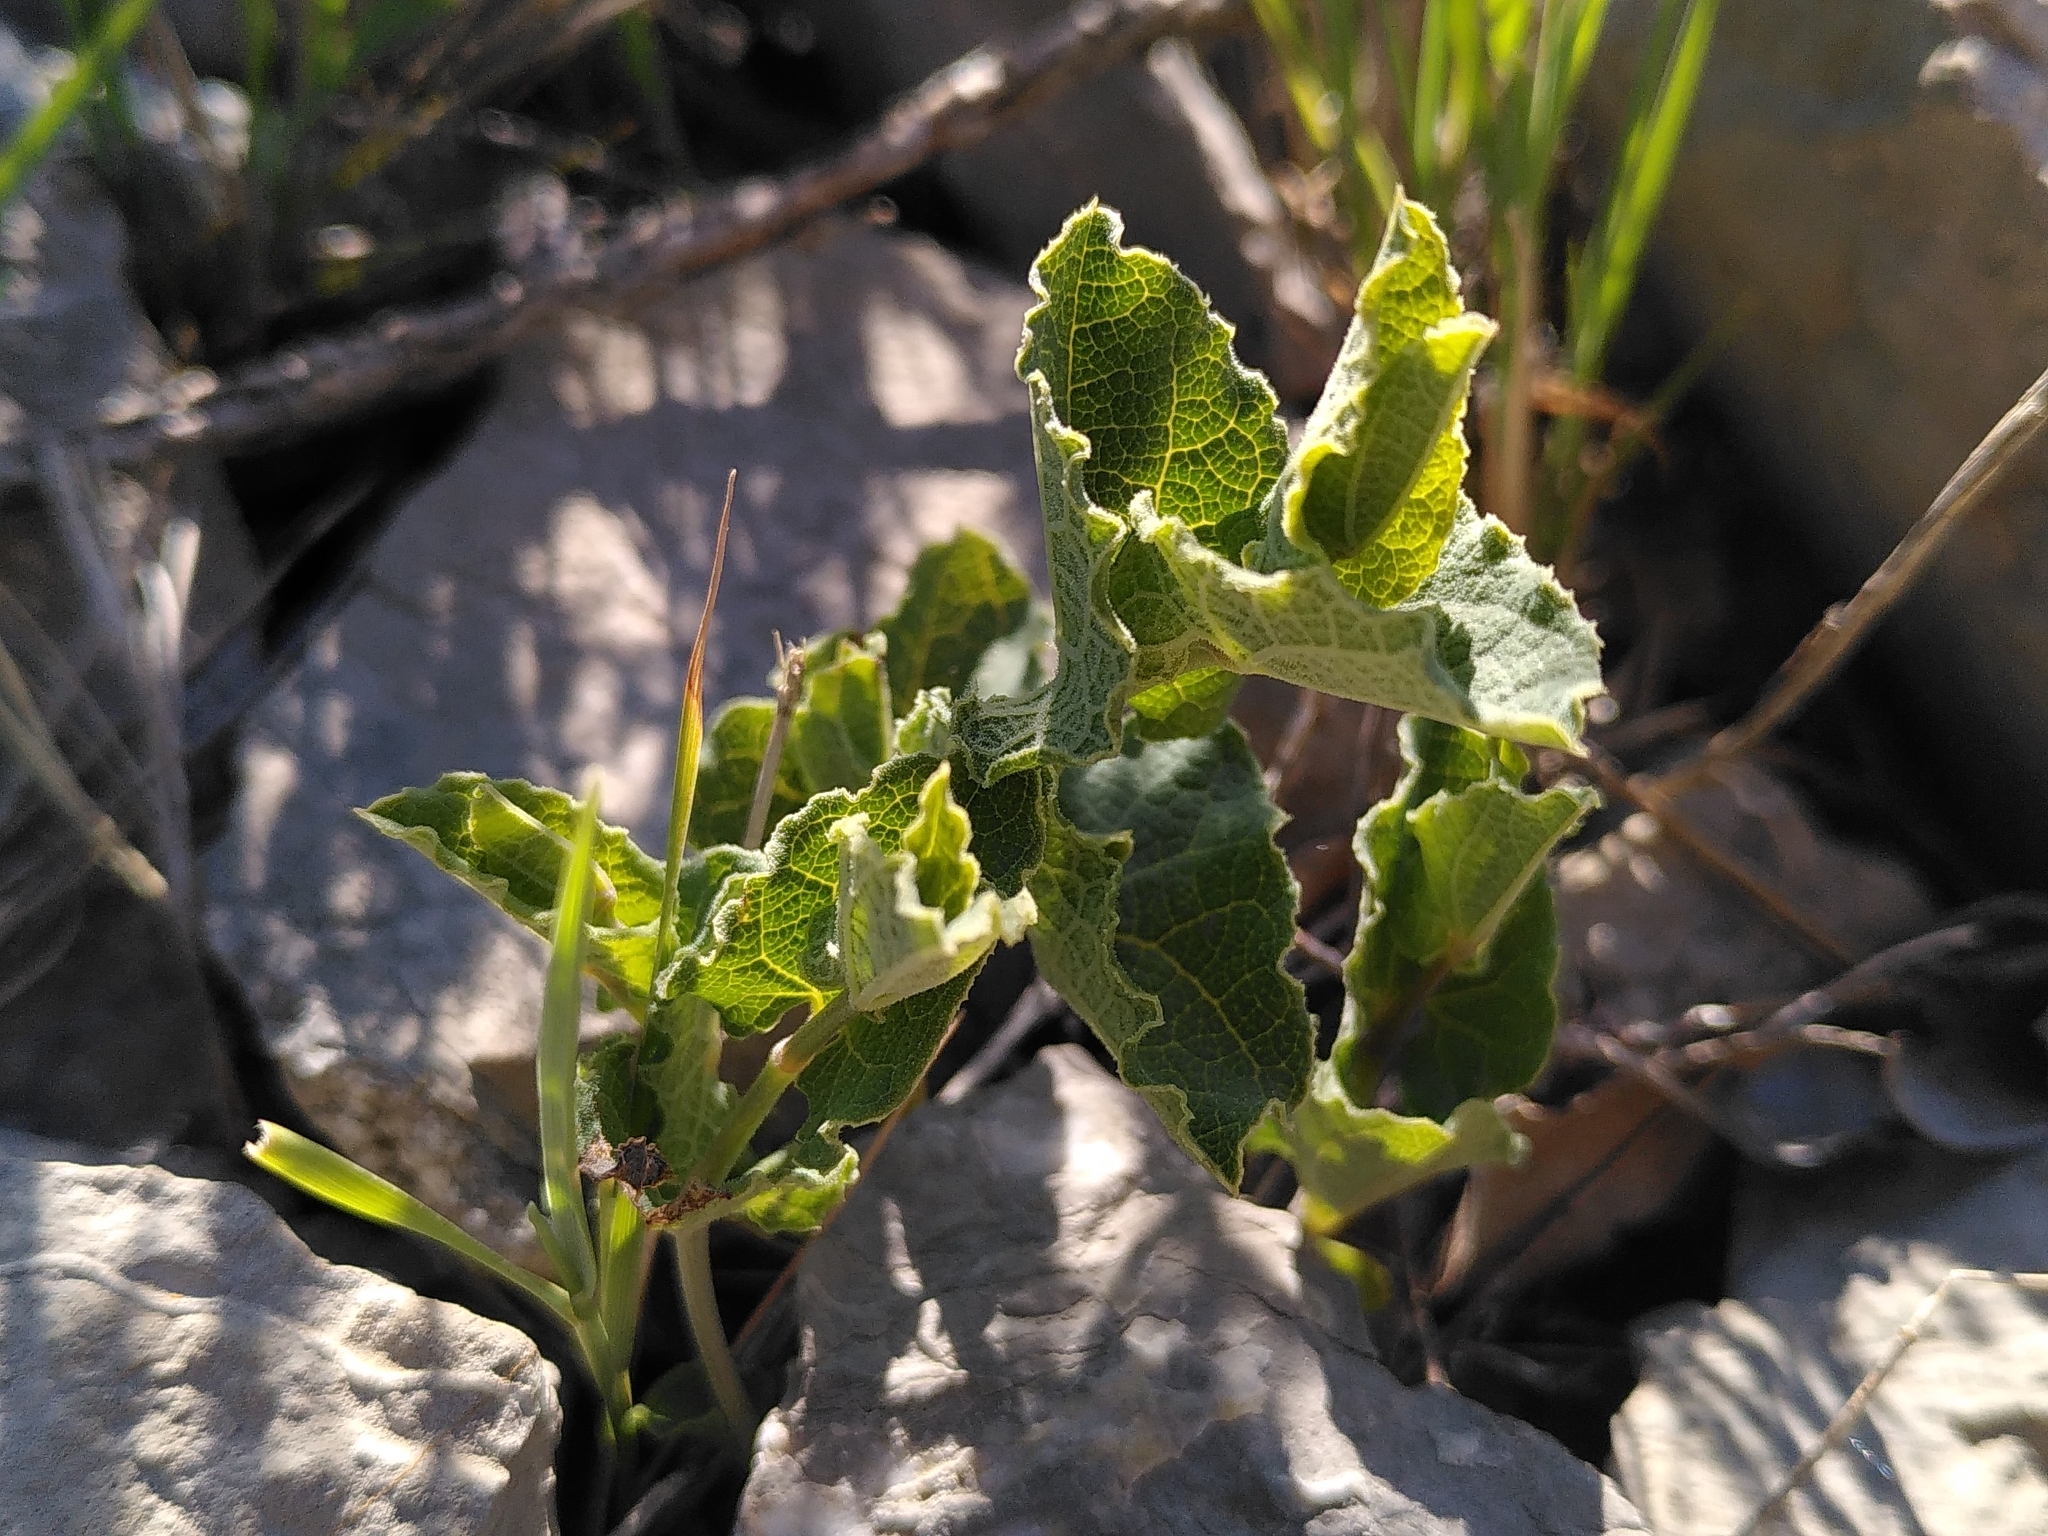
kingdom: Plantae
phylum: Tracheophyta
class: Magnoliopsida
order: Piperales
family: Aristolochiaceae
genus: Aristolochia
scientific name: Aristolochia pistolochia
